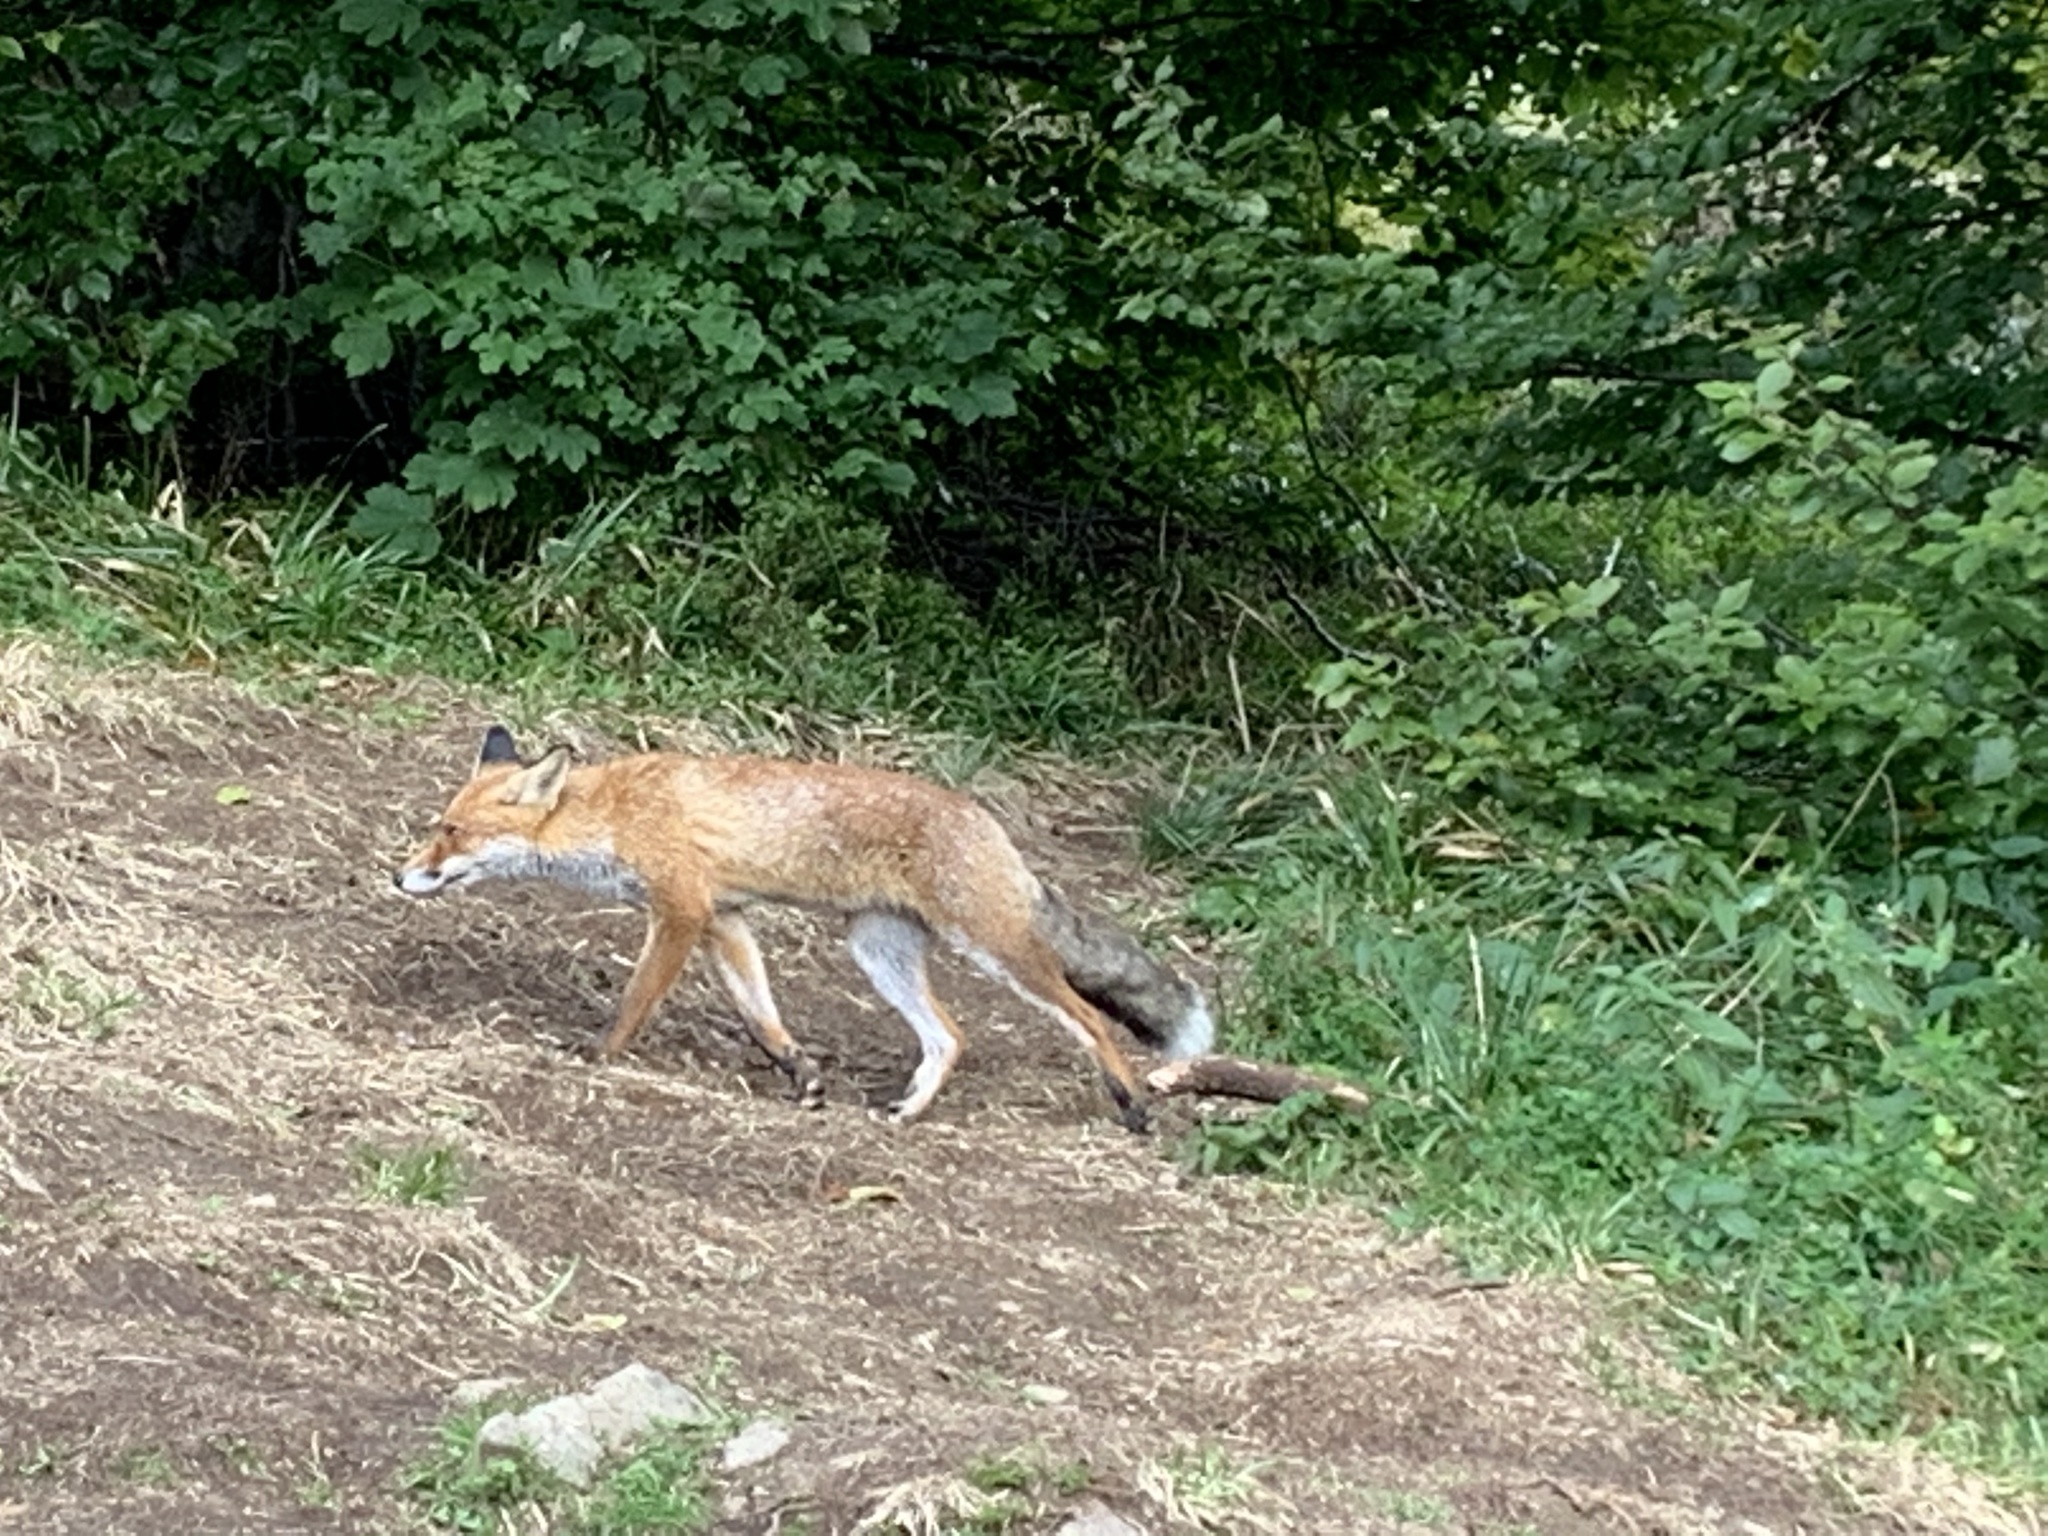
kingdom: Animalia
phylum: Chordata
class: Mammalia
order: Carnivora
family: Canidae
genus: Vulpes
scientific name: Vulpes vulpes
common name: Red fox
